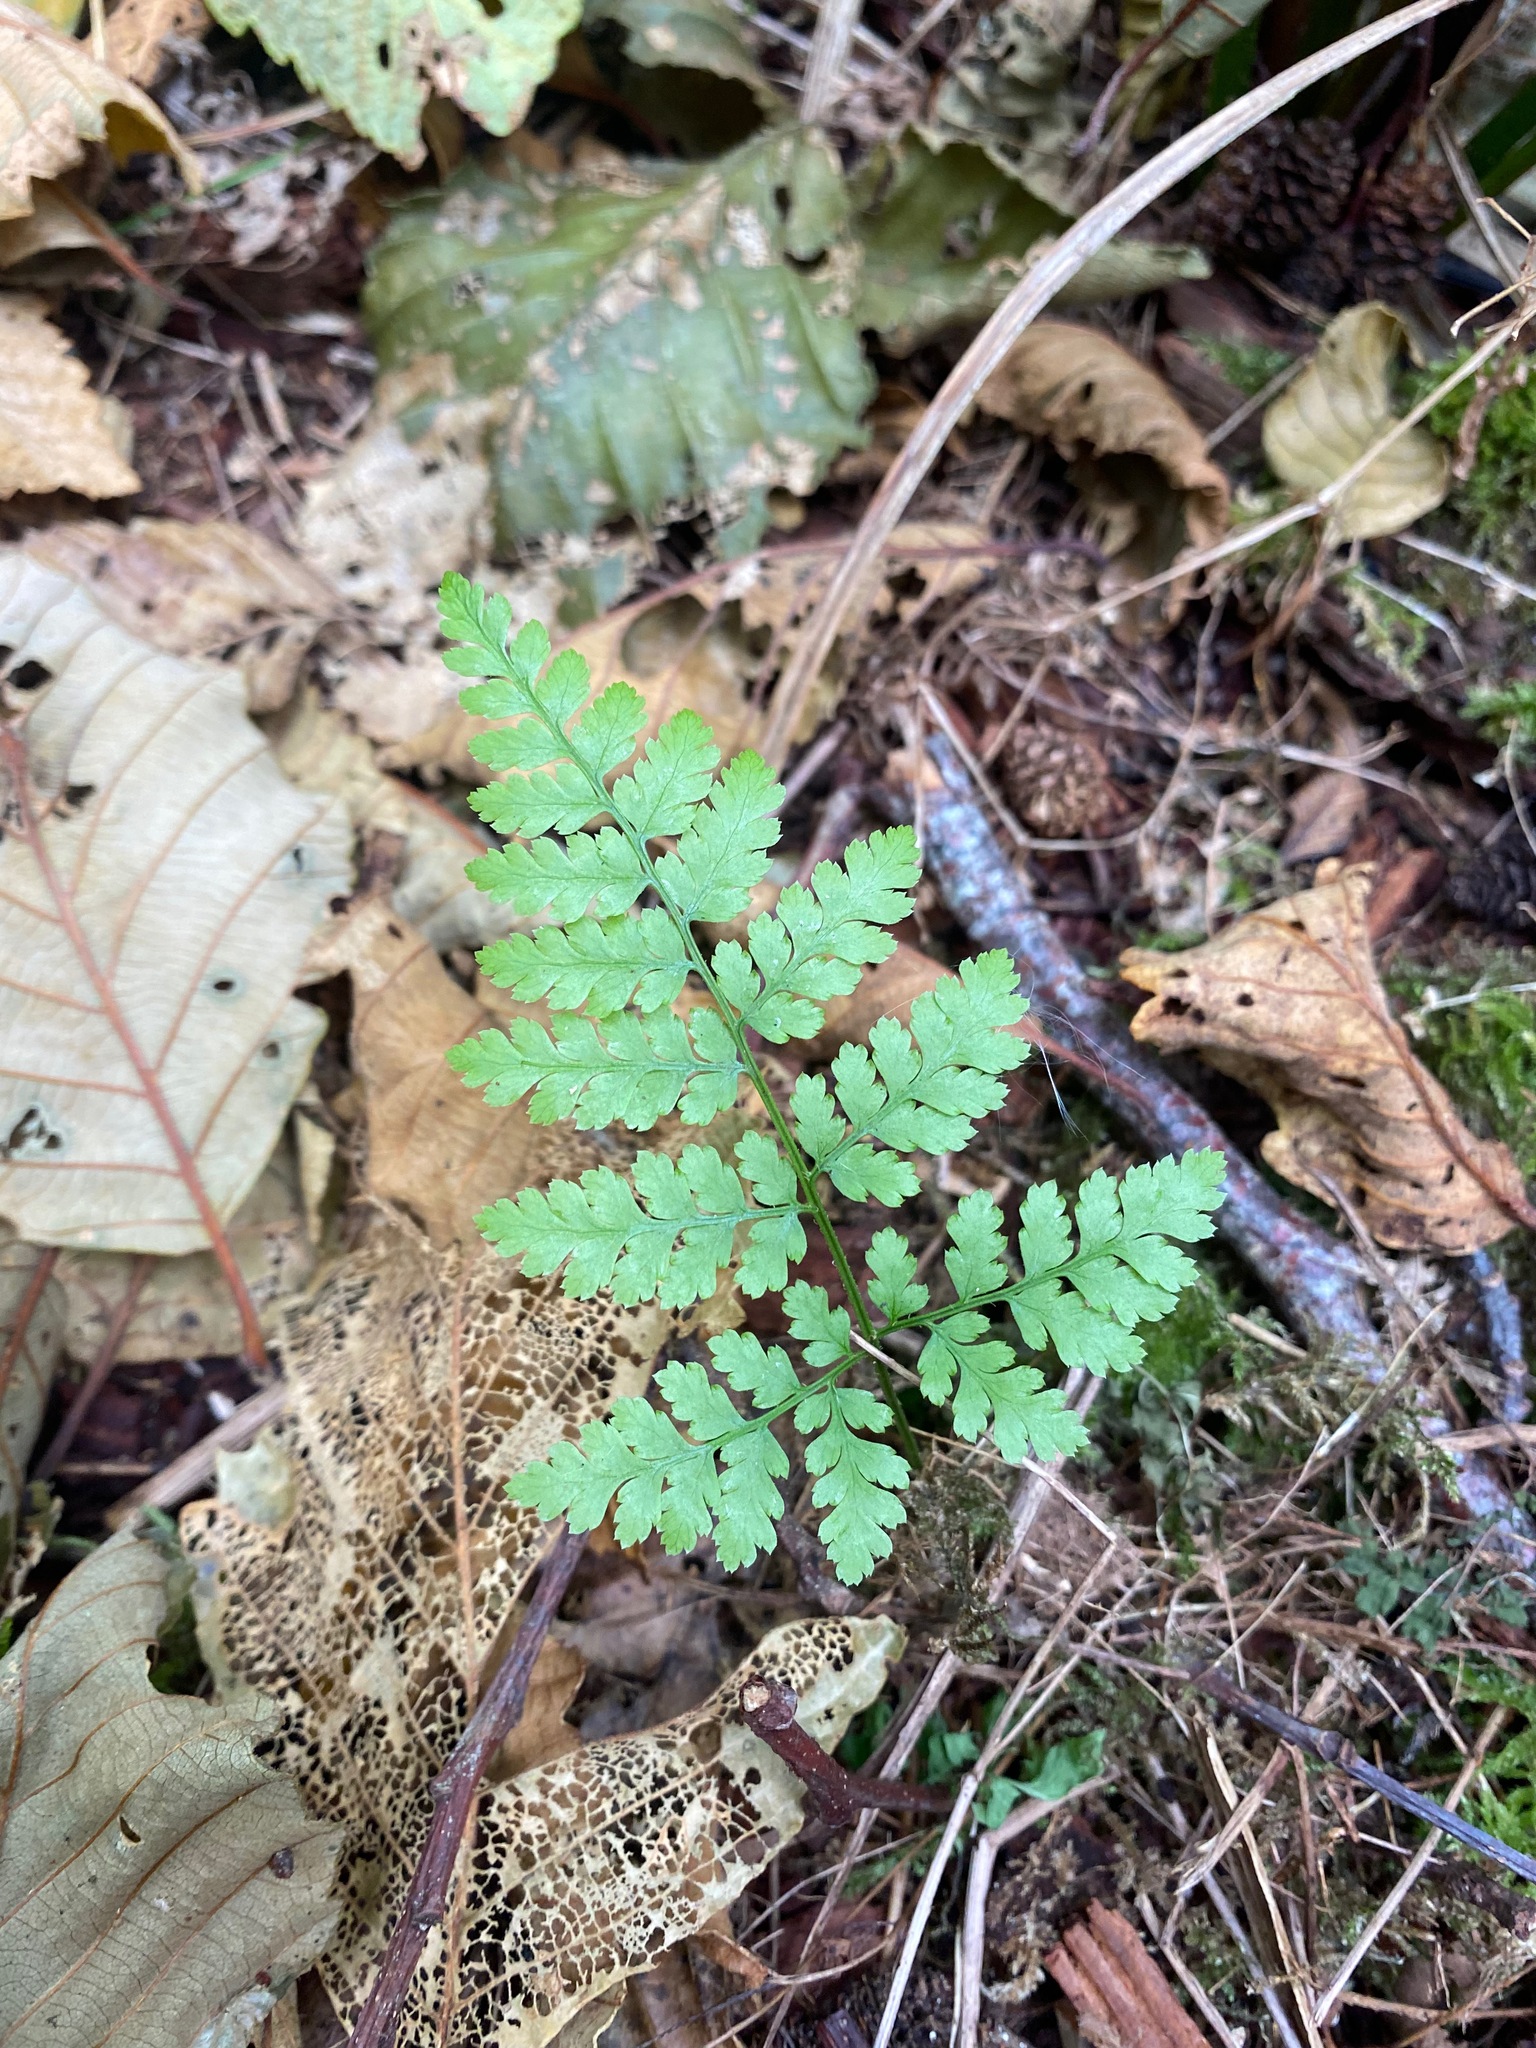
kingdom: Plantae
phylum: Tracheophyta
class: Polypodiopsida
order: Polypodiales
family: Dryopteridaceae
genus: Dryopteris
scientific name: Dryopteris expansa
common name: Northern buckler fern
